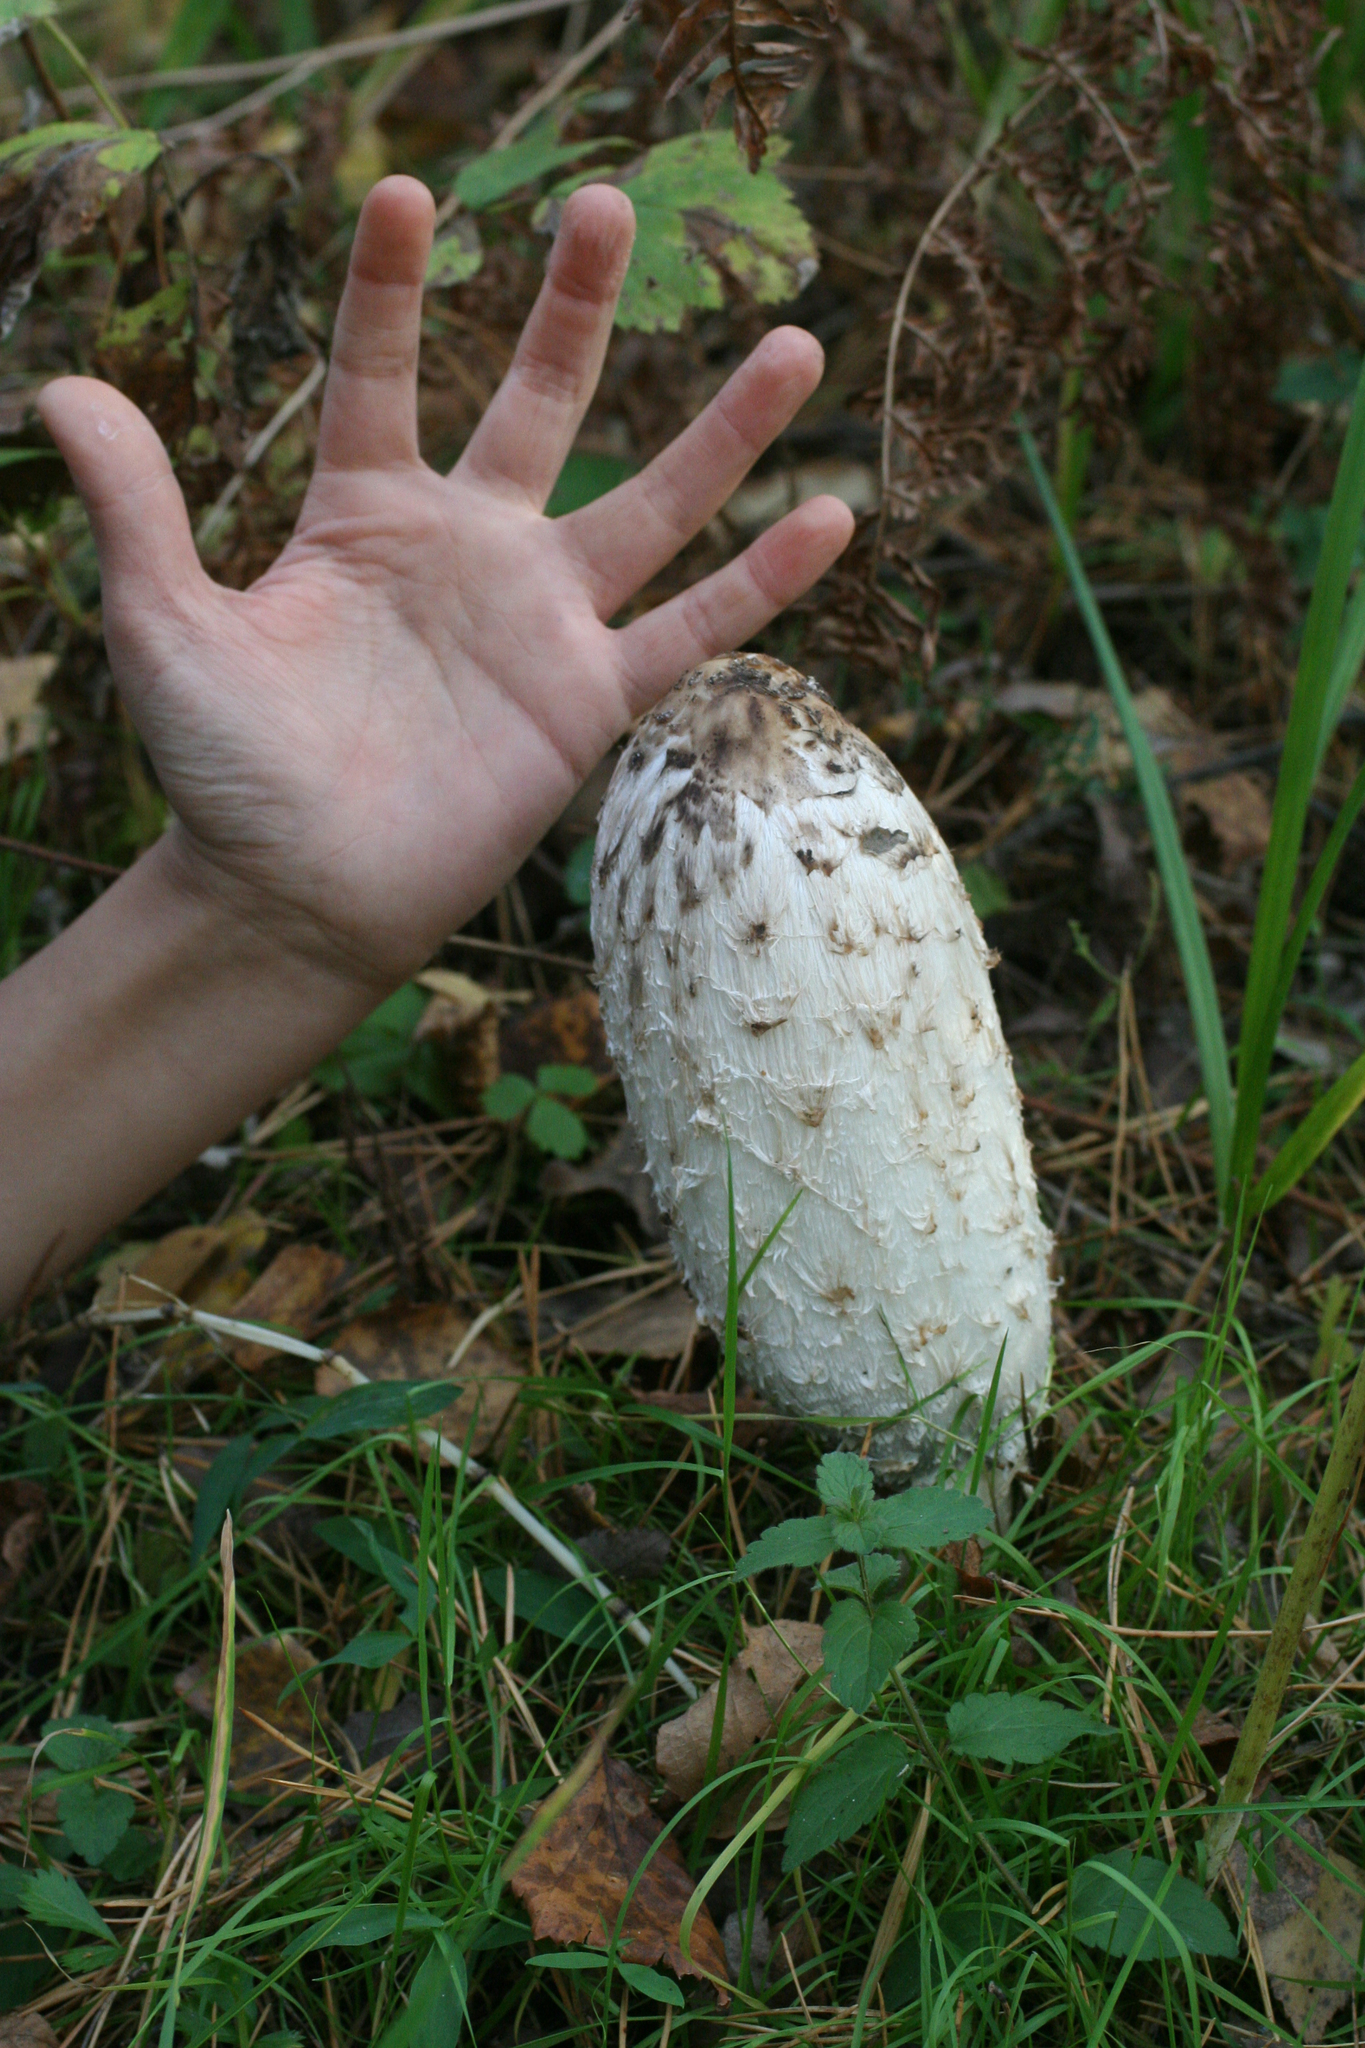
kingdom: Fungi
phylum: Basidiomycota
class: Agaricomycetes
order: Agaricales
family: Agaricaceae
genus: Coprinus
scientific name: Coprinus comatus
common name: Lawyer's wig
